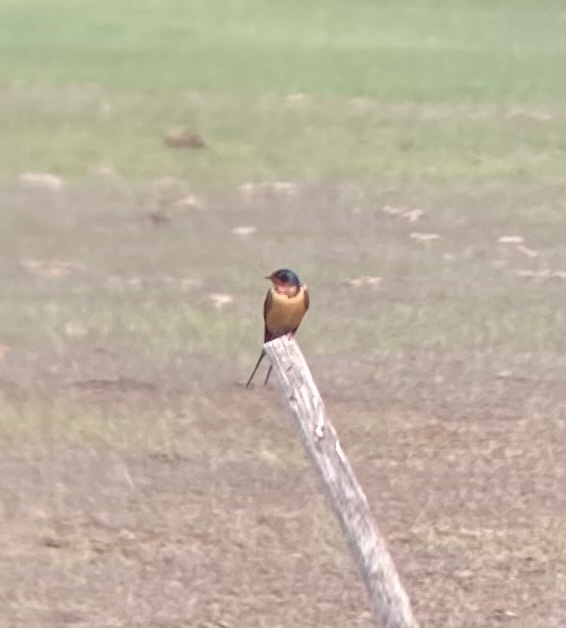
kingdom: Animalia
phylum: Chordata
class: Aves
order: Passeriformes
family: Hirundinidae
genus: Hirundo
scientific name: Hirundo rustica
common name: Barn swallow
